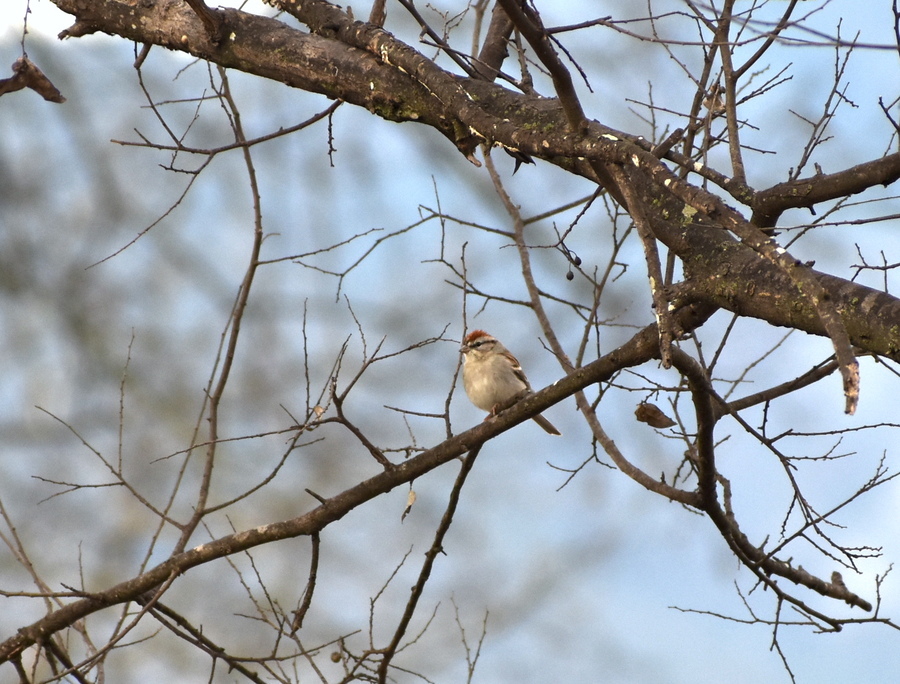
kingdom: Animalia
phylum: Chordata
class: Aves
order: Passeriformes
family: Passerellidae
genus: Spizella
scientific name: Spizella passerina
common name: Chipping sparrow
